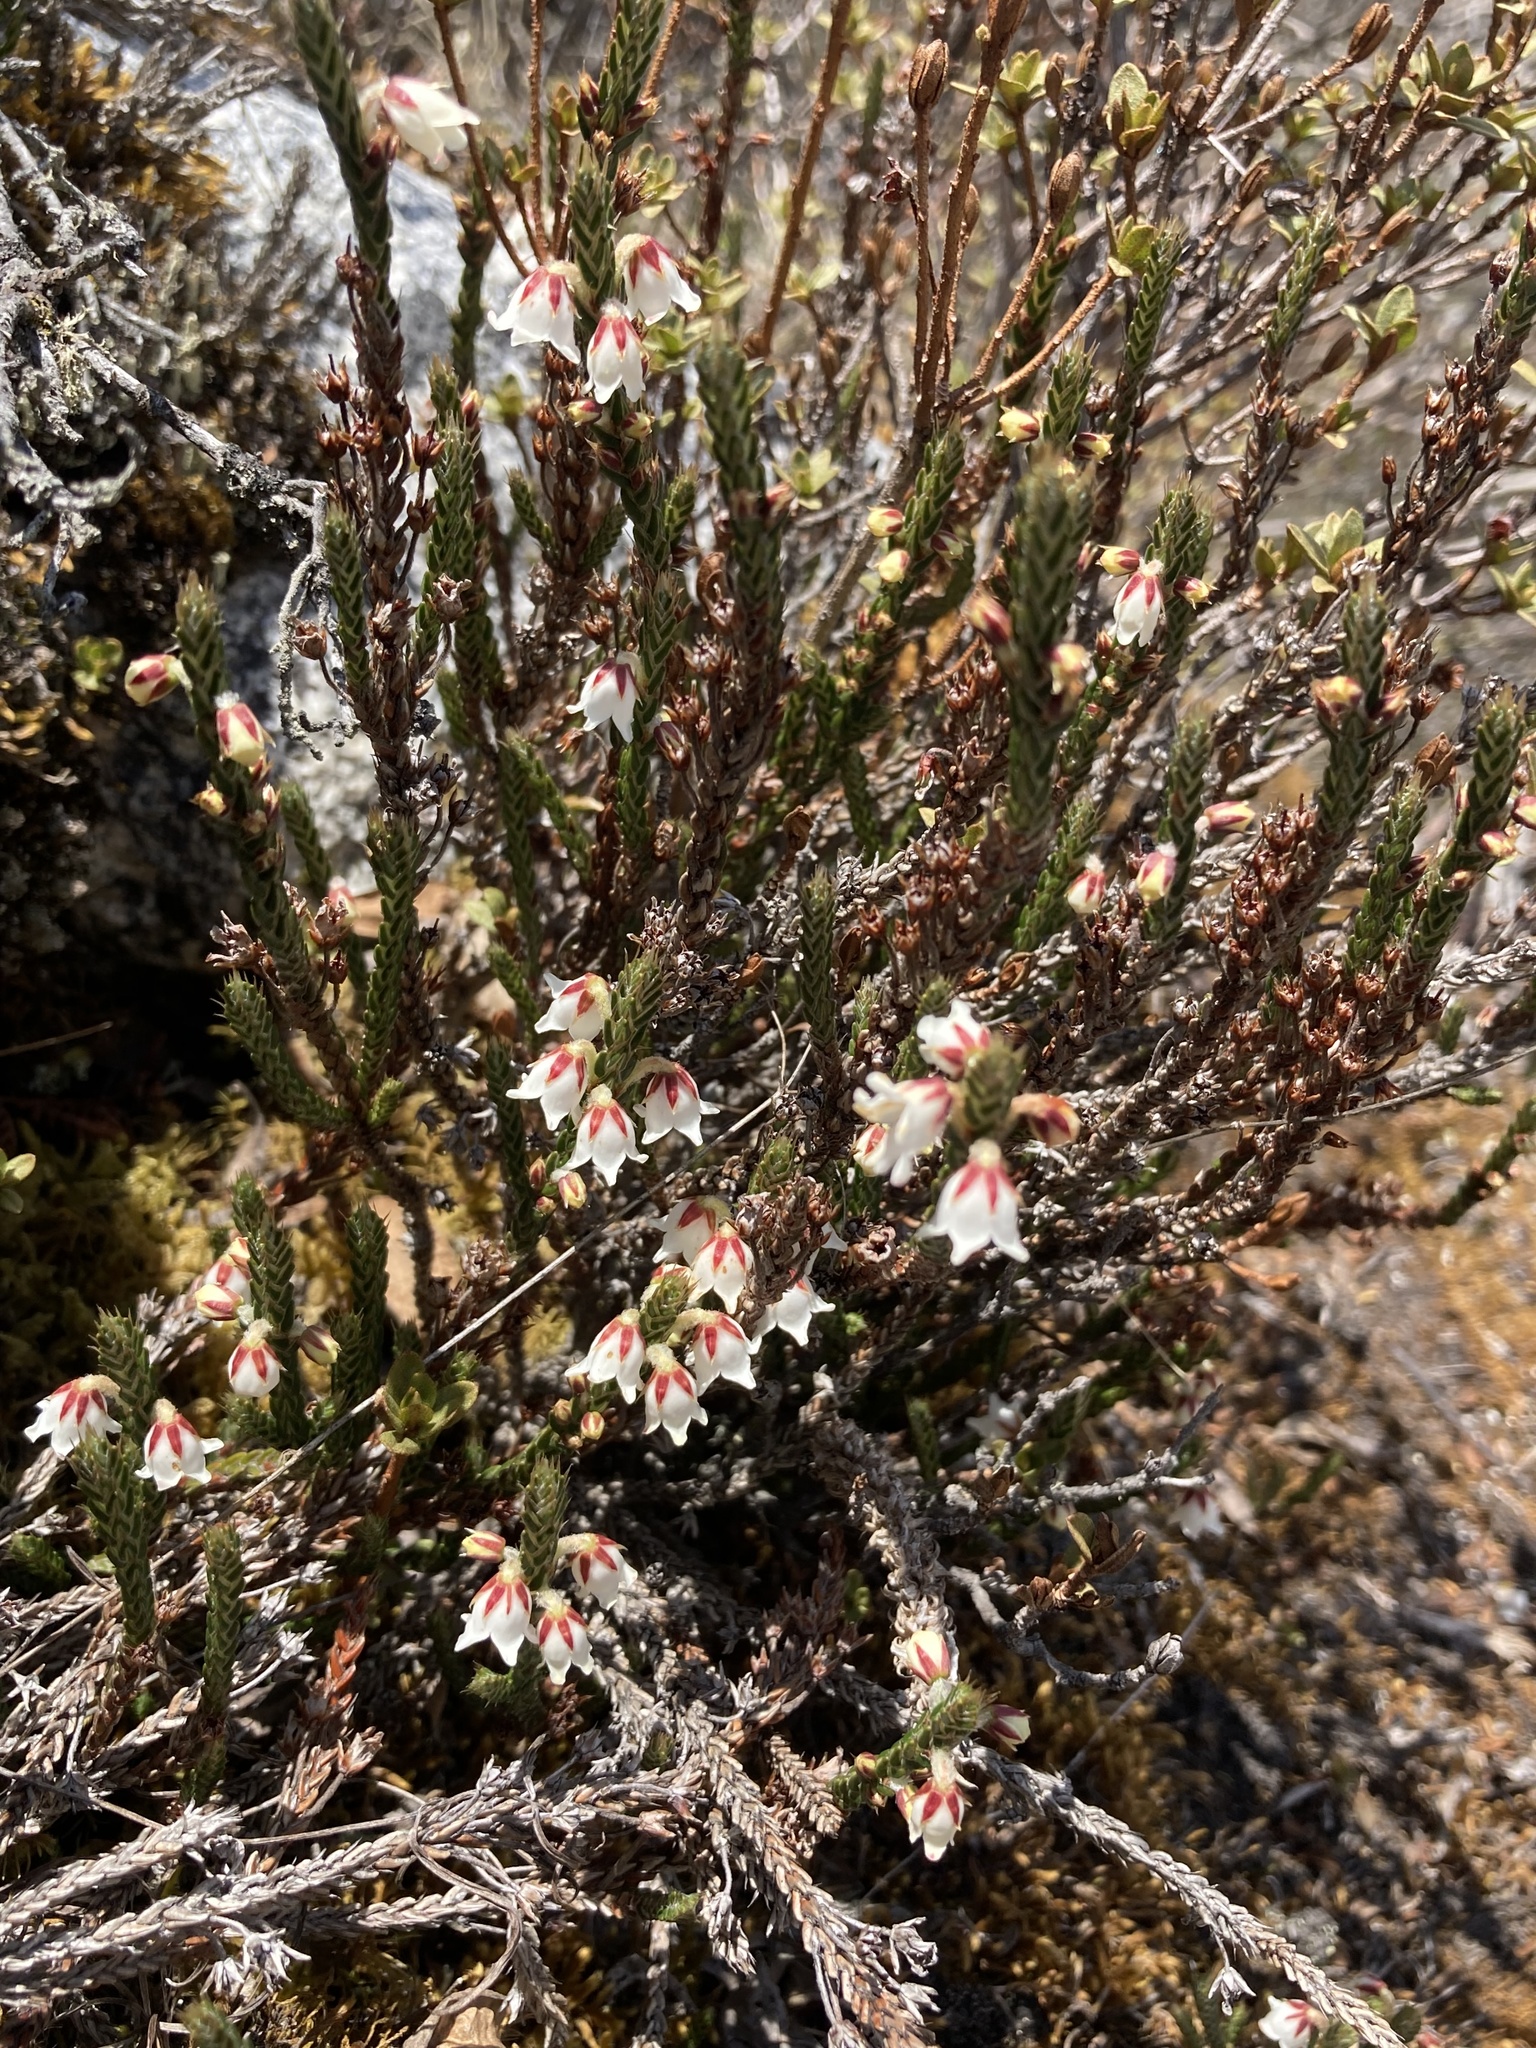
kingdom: Plantae
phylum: Tracheophyta
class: Magnoliopsida
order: Ericales
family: Ericaceae
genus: Cassiope
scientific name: Cassiope fastigiata
